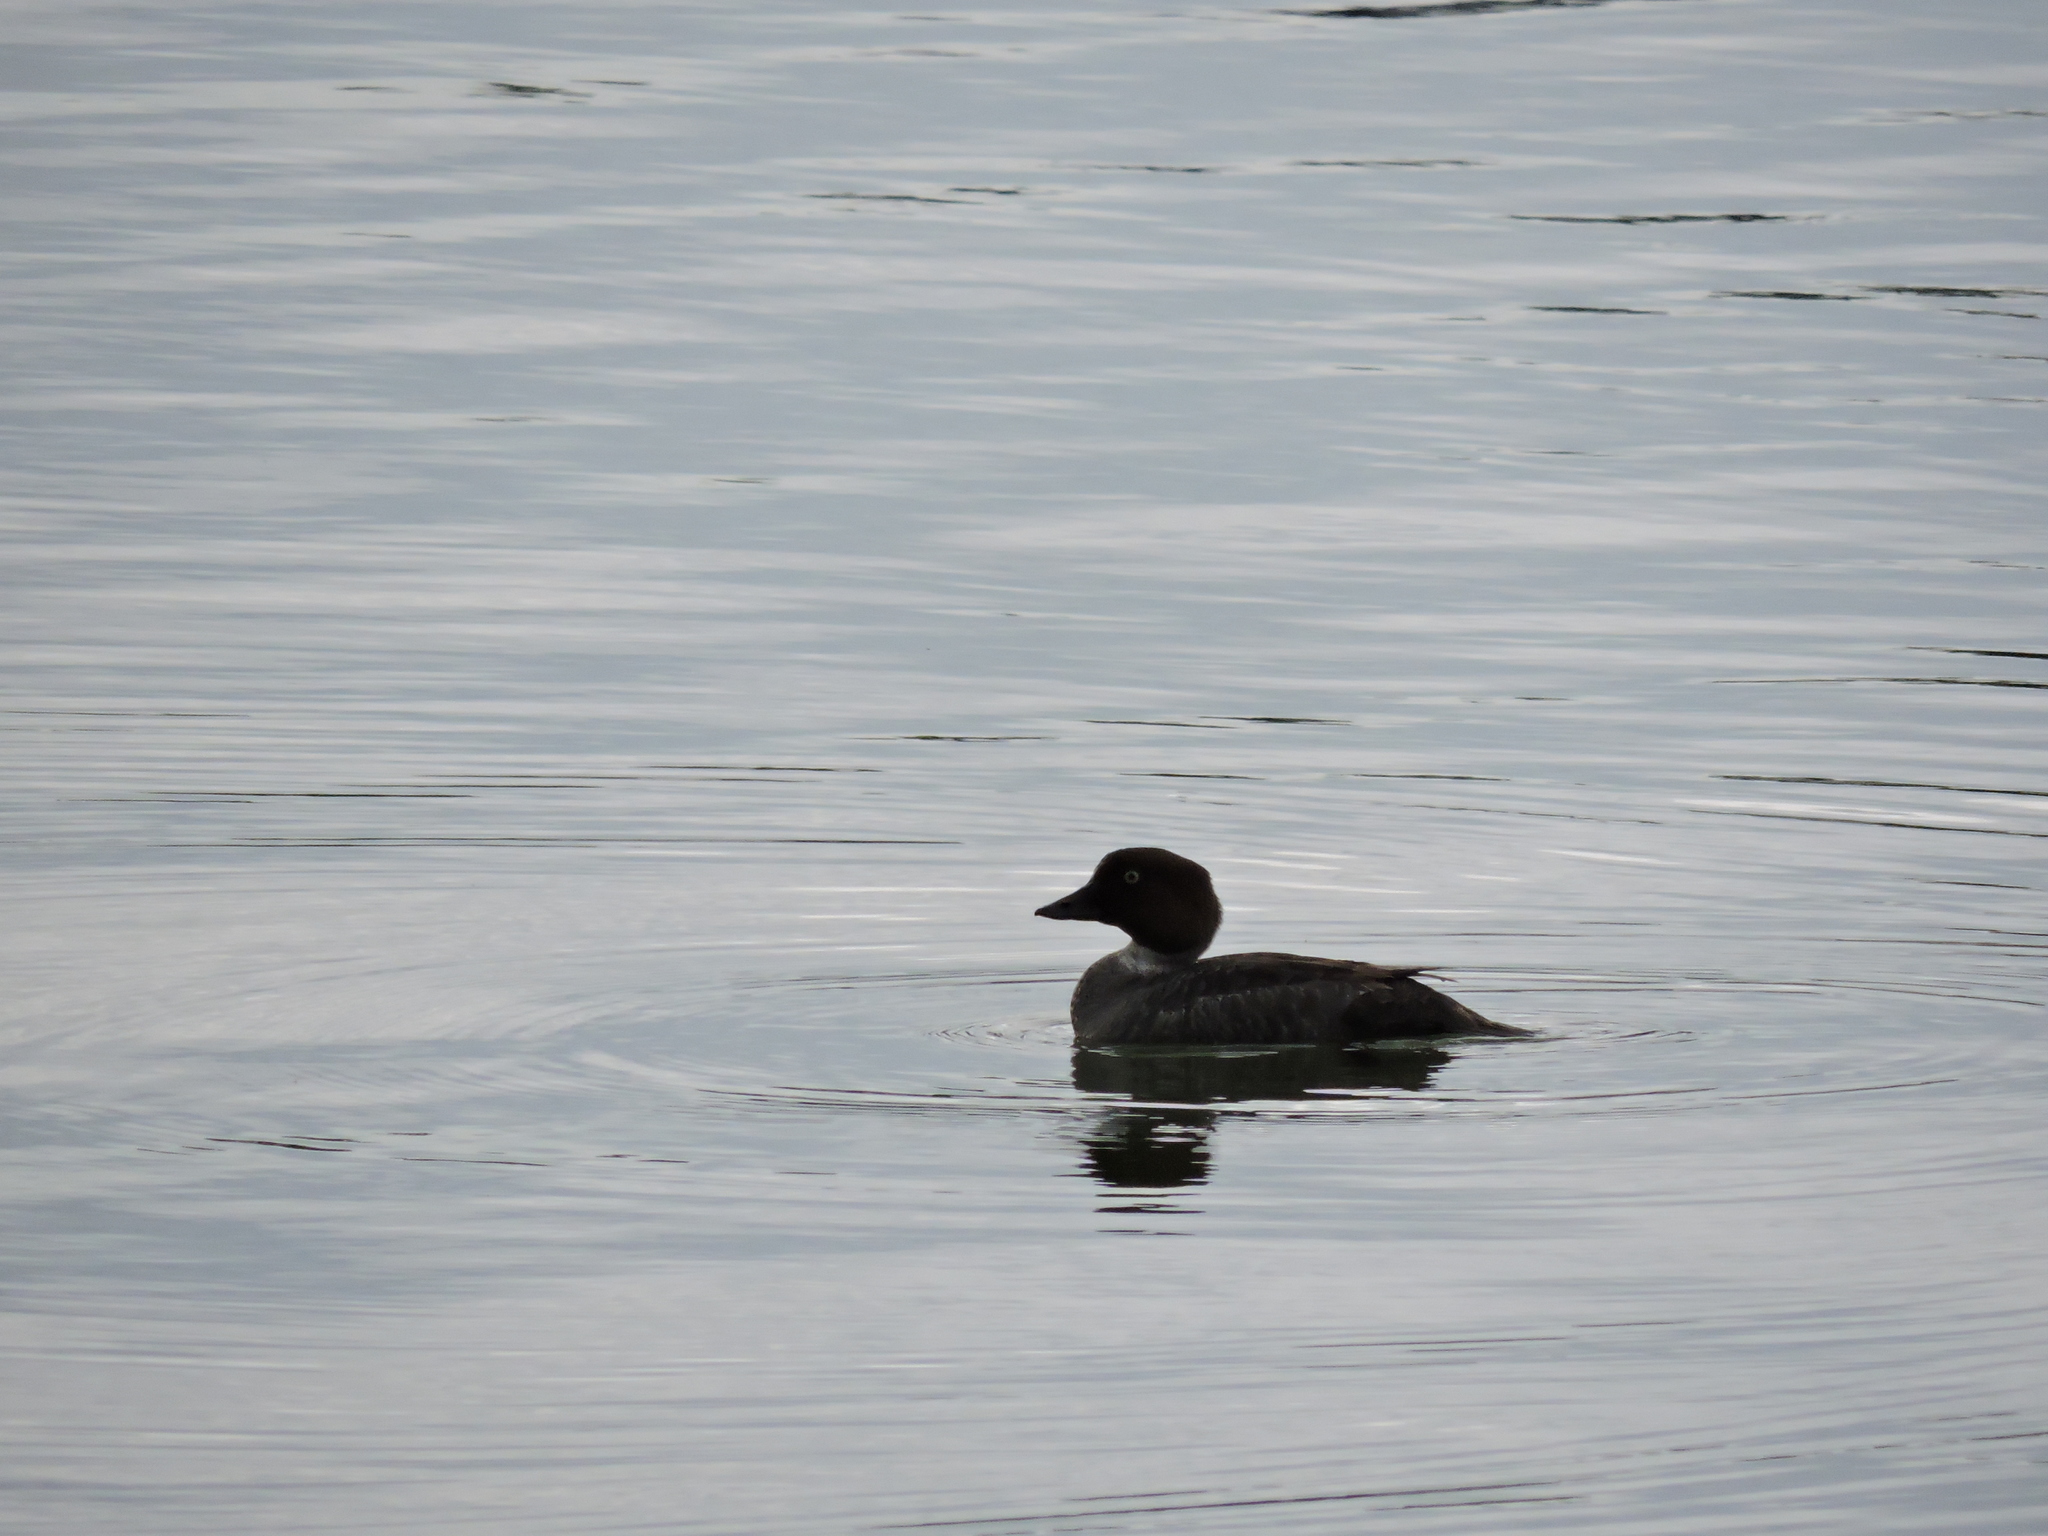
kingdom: Animalia
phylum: Chordata
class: Aves
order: Anseriformes
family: Anatidae
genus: Bucephala
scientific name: Bucephala clangula
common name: Common goldeneye
